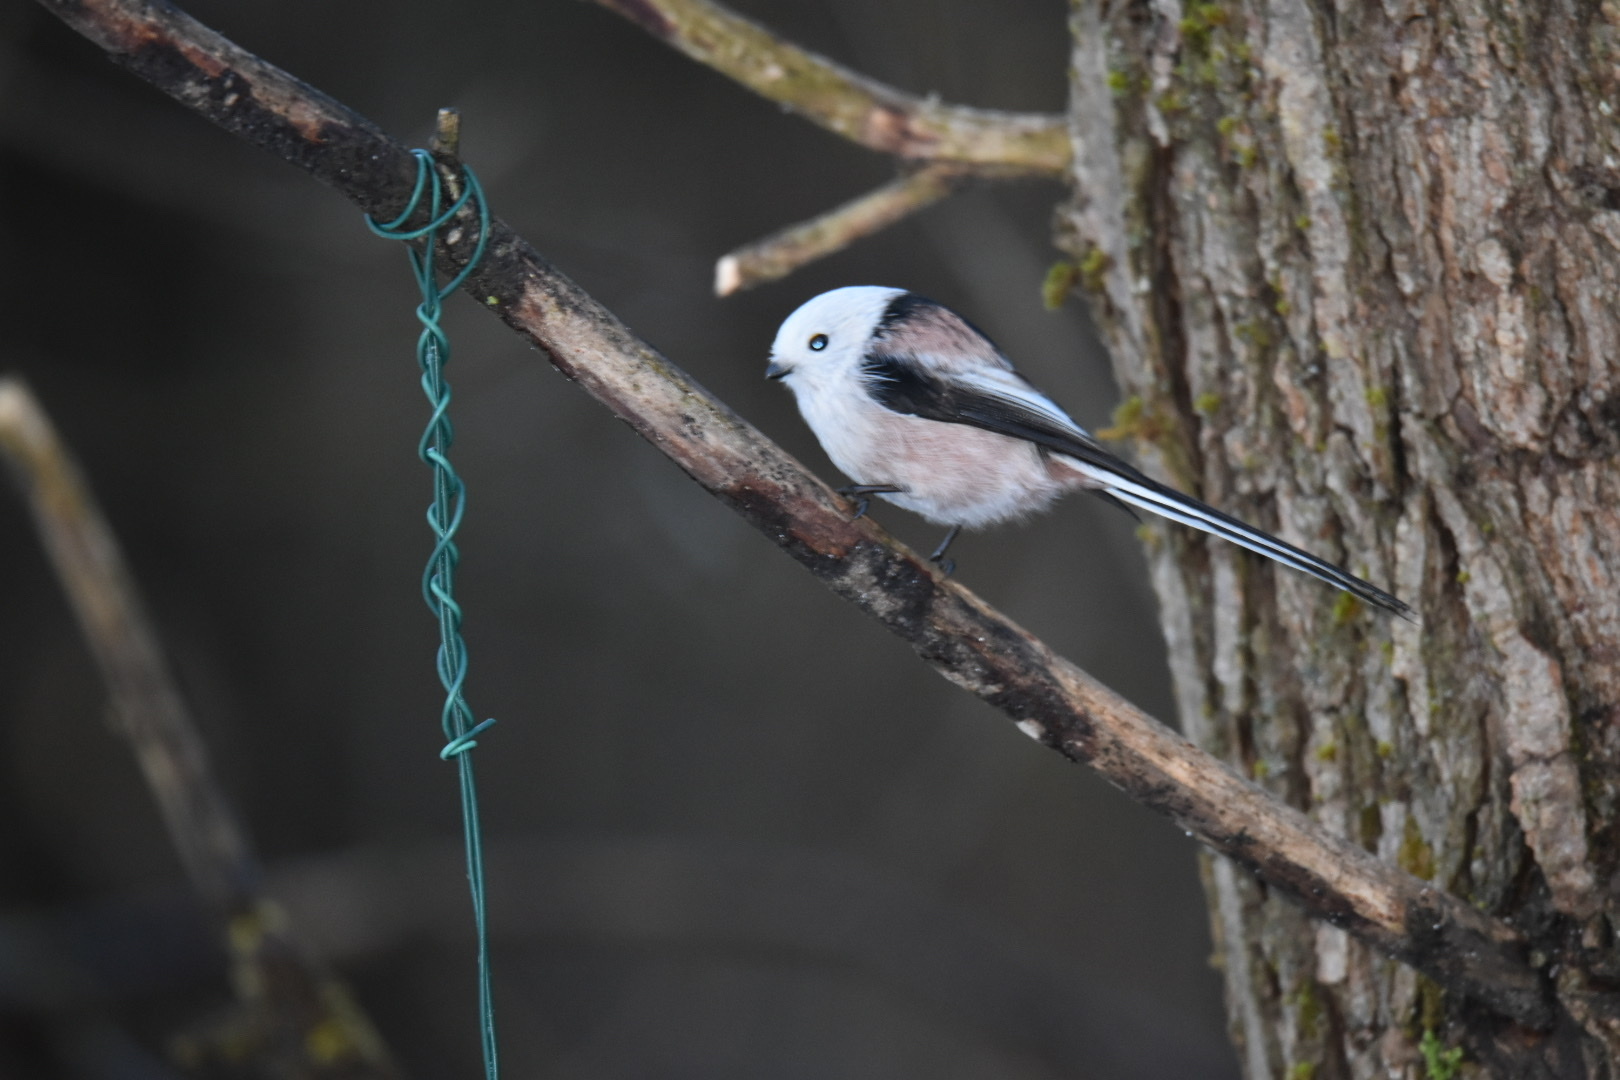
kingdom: Animalia
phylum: Chordata
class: Aves
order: Passeriformes
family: Aegithalidae
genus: Aegithalos
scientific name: Aegithalos caudatus
